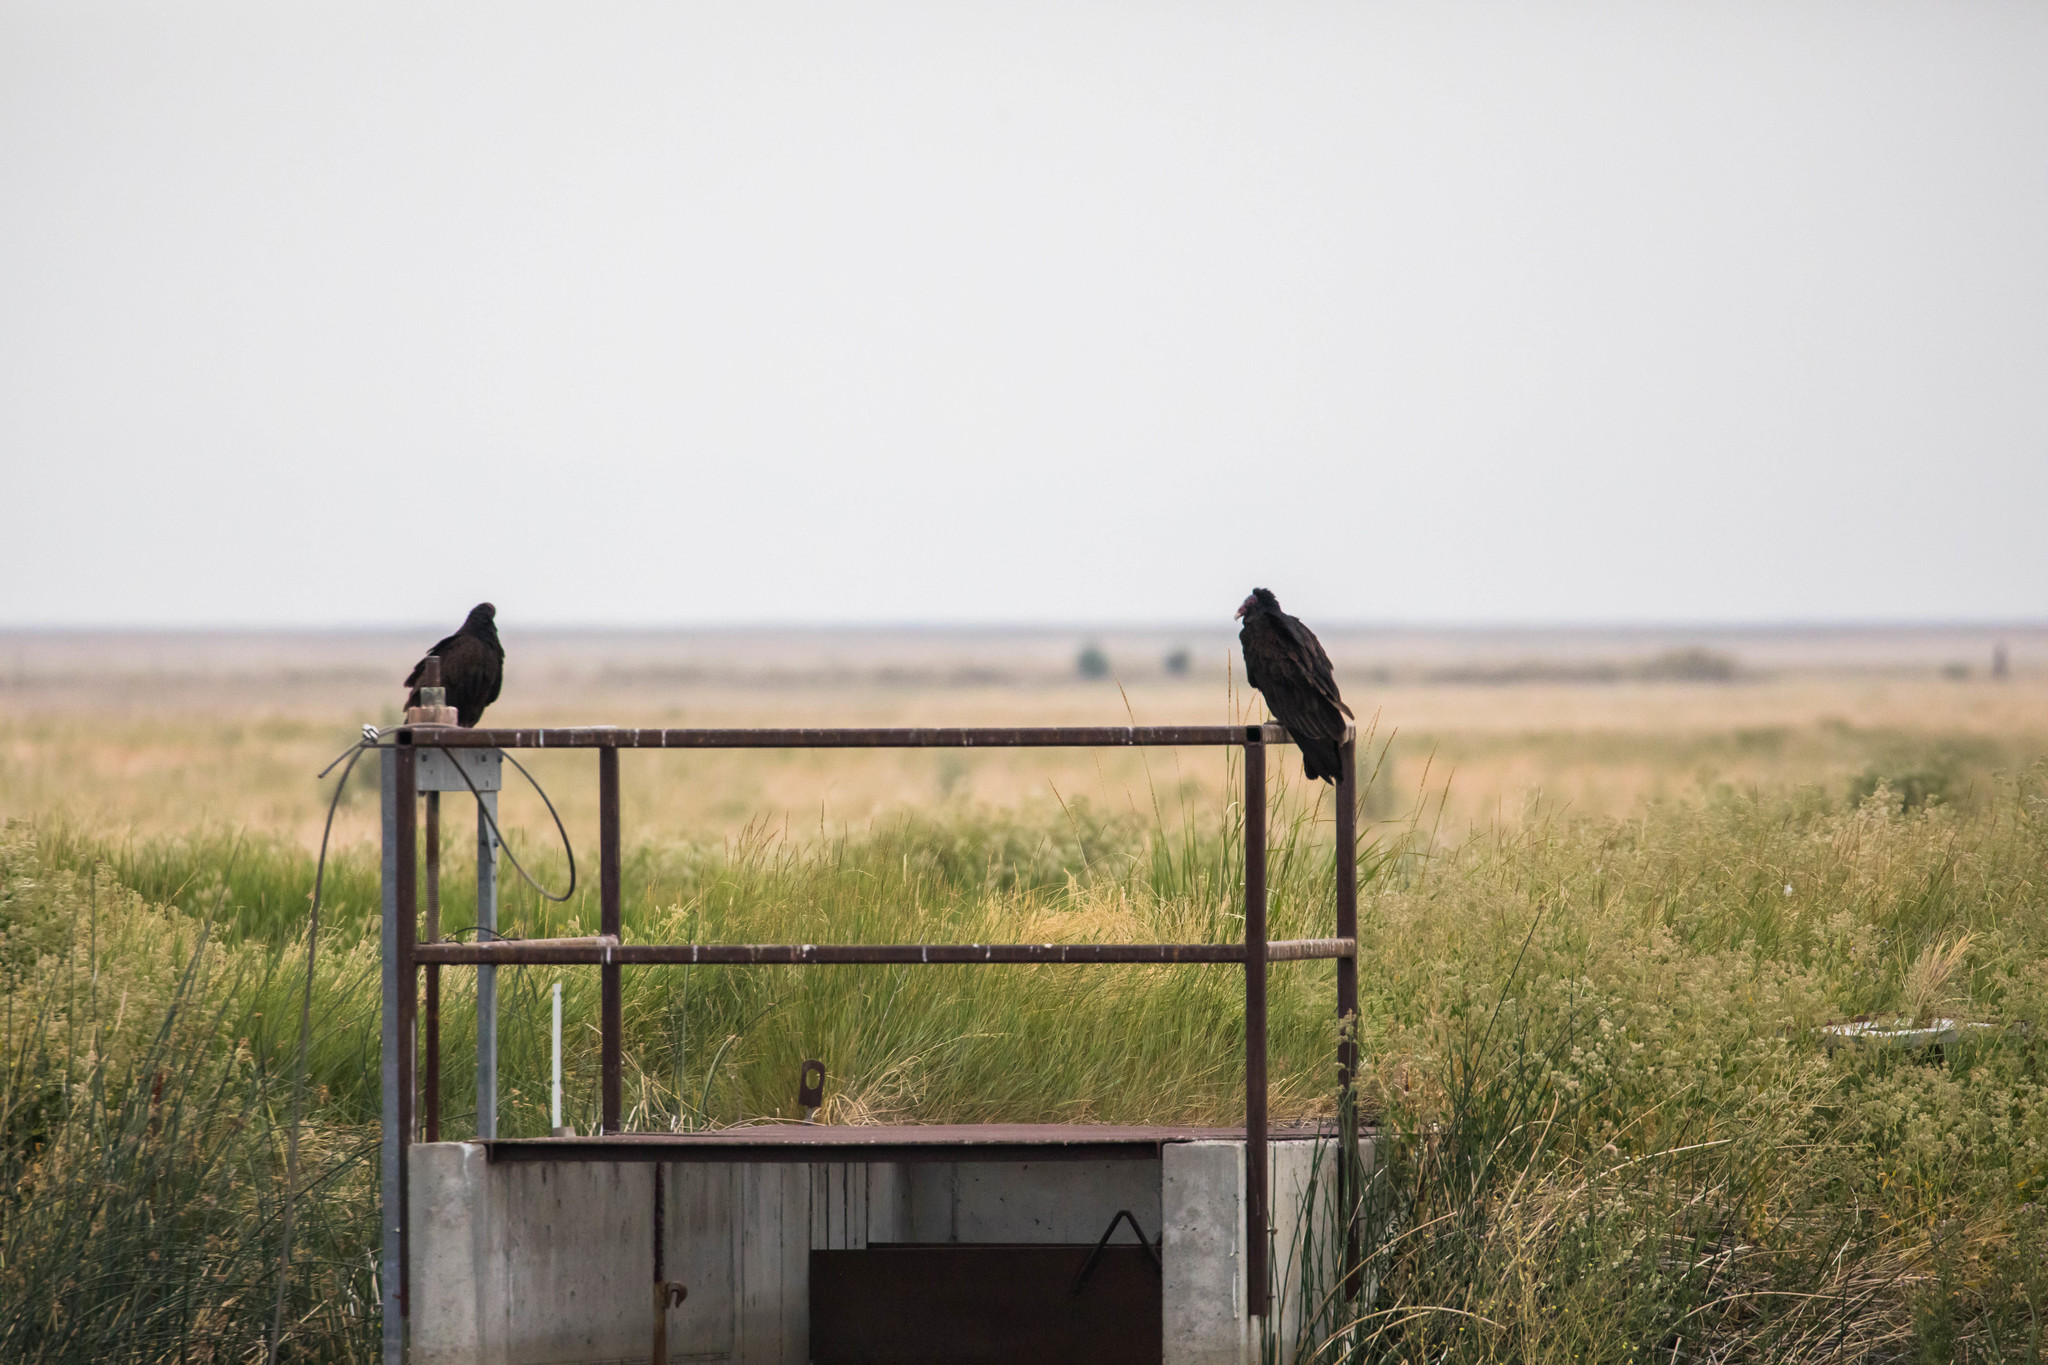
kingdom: Animalia
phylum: Chordata
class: Aves
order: Accipitriformes
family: Cathartidae
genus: Cathartes
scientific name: Cathartes aura
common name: Turkey vulture
